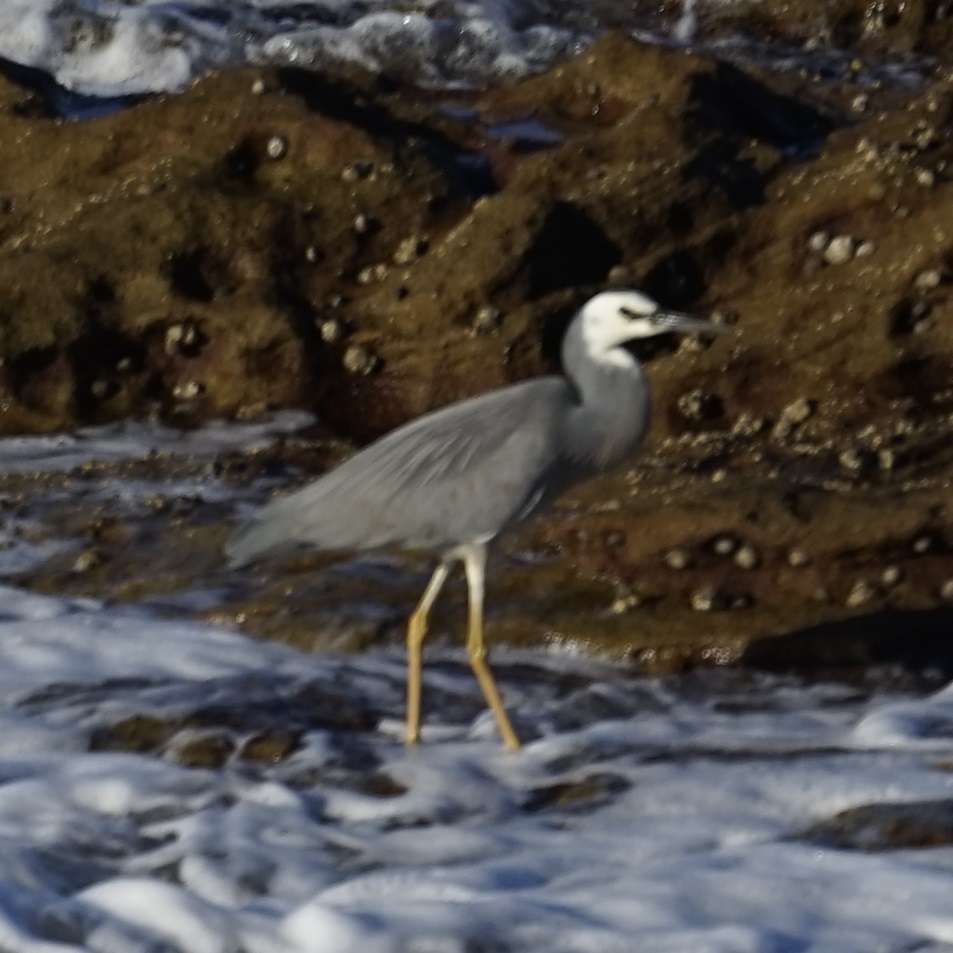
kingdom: Animalia
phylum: Chordata
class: Aves
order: Pelecaniformes
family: Ardeidae
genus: Egretta
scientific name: Egretta novaehollandiae
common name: White-faced heron
